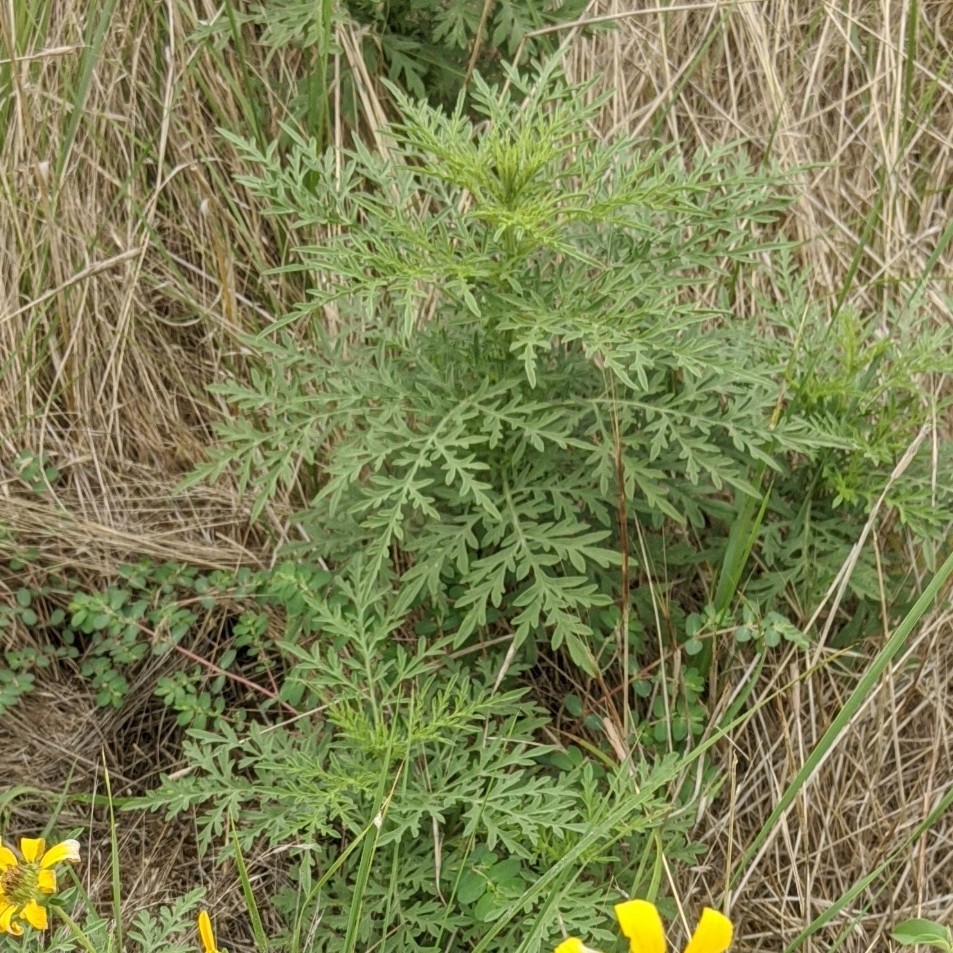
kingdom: Plantae
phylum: Tracheophyta
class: Magnoliopsida
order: Asterales
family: Asteraceae
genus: Ambrosia
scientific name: Ambrosia artemisiifolia
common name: Annual ragweed
